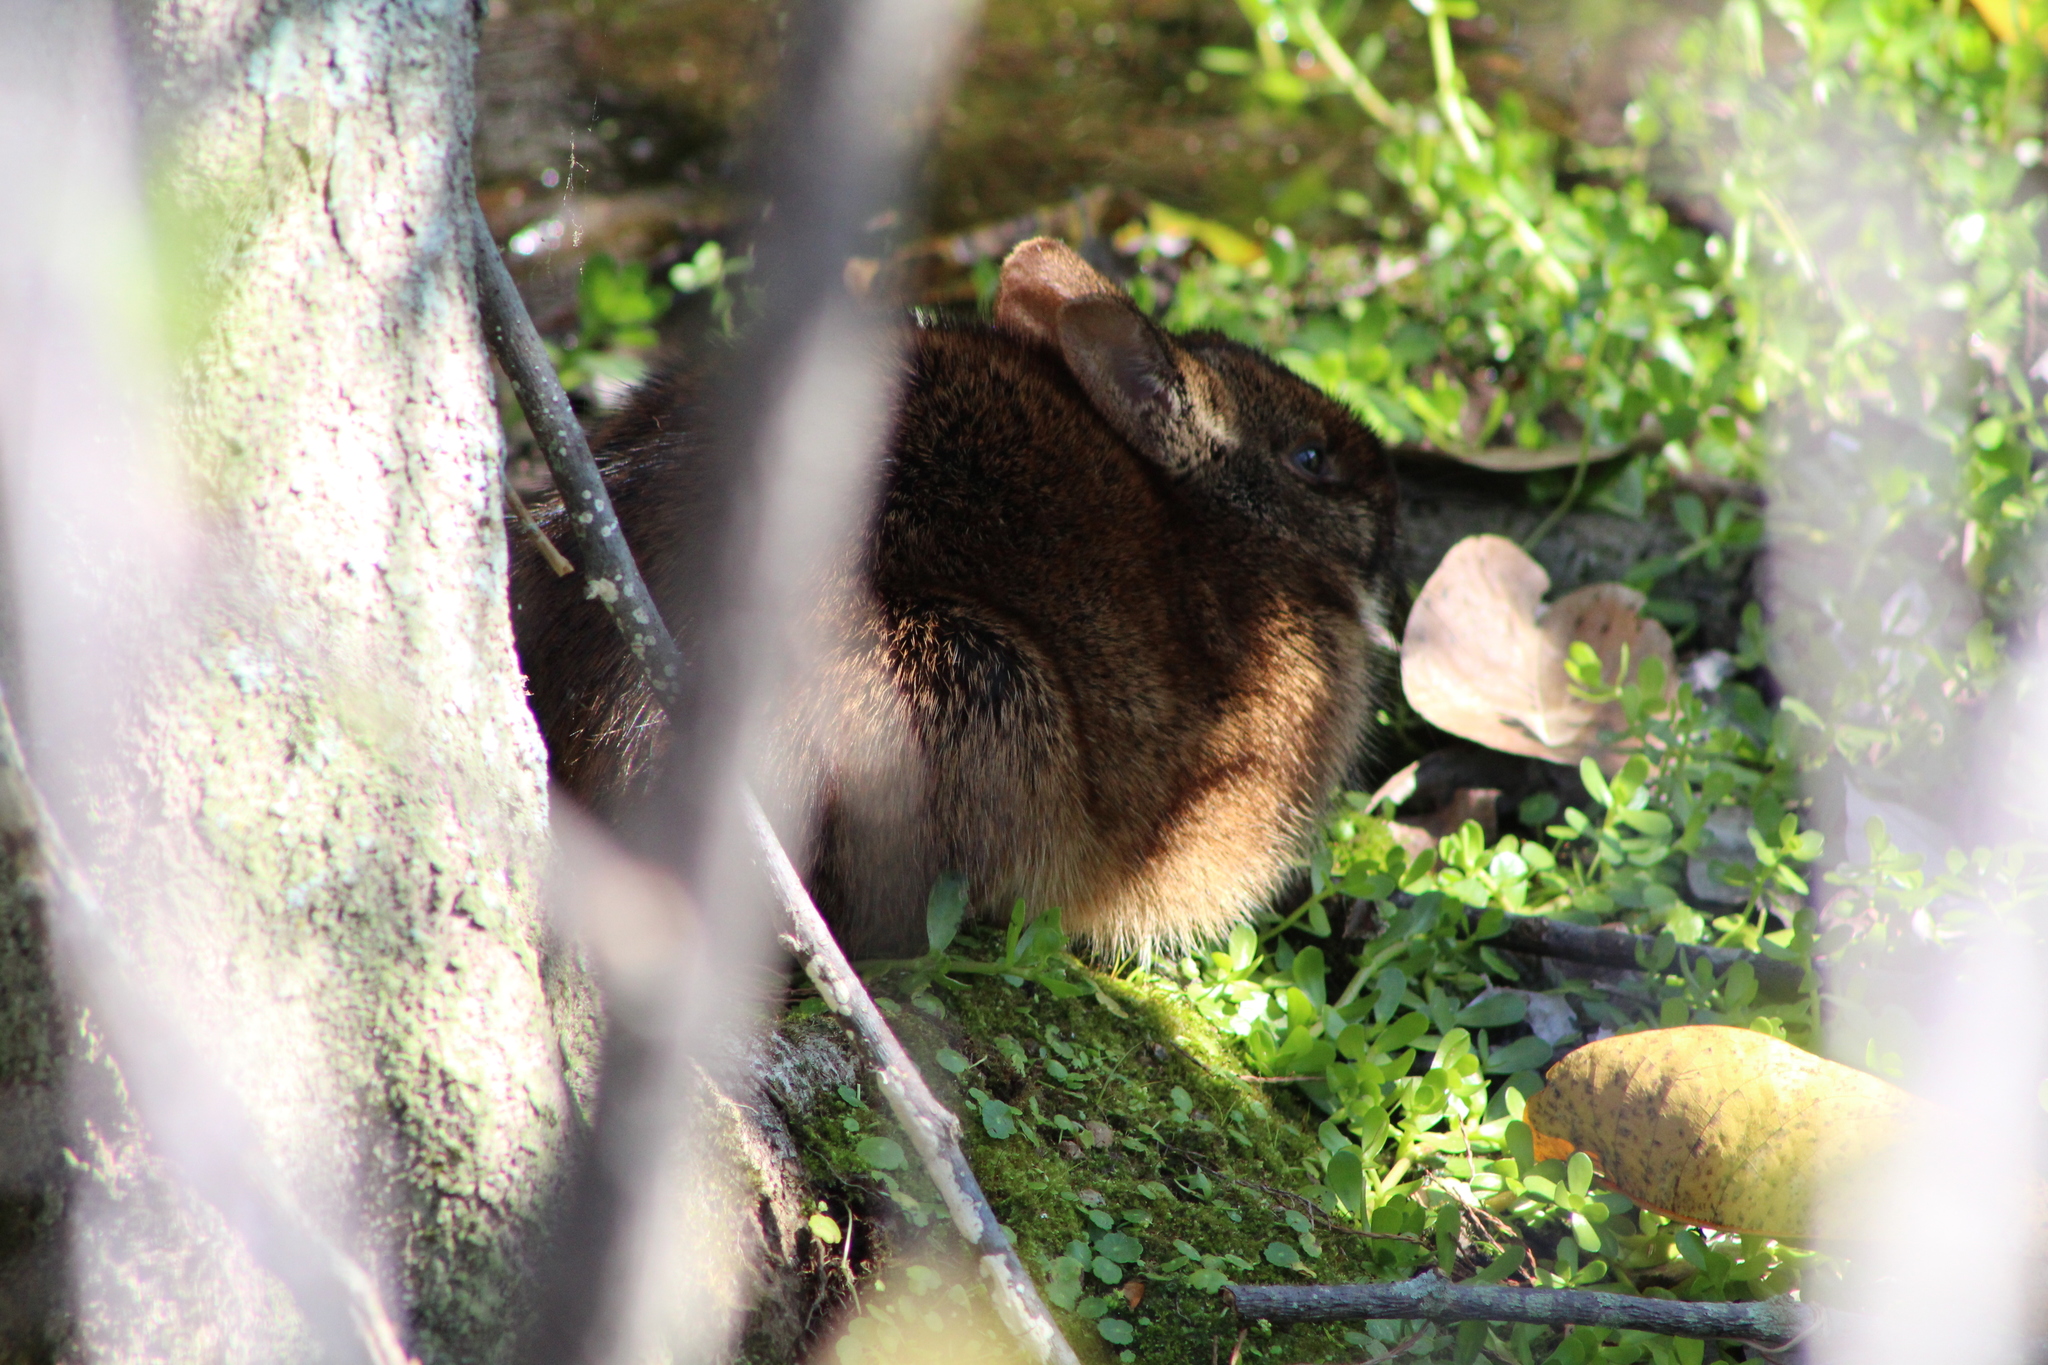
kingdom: Animalia
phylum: Chordata
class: Mammalia
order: Lagomorpha
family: Leporidae
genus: Sylvilagus
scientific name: Sylvilagus palustris
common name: Marsh rabbit
